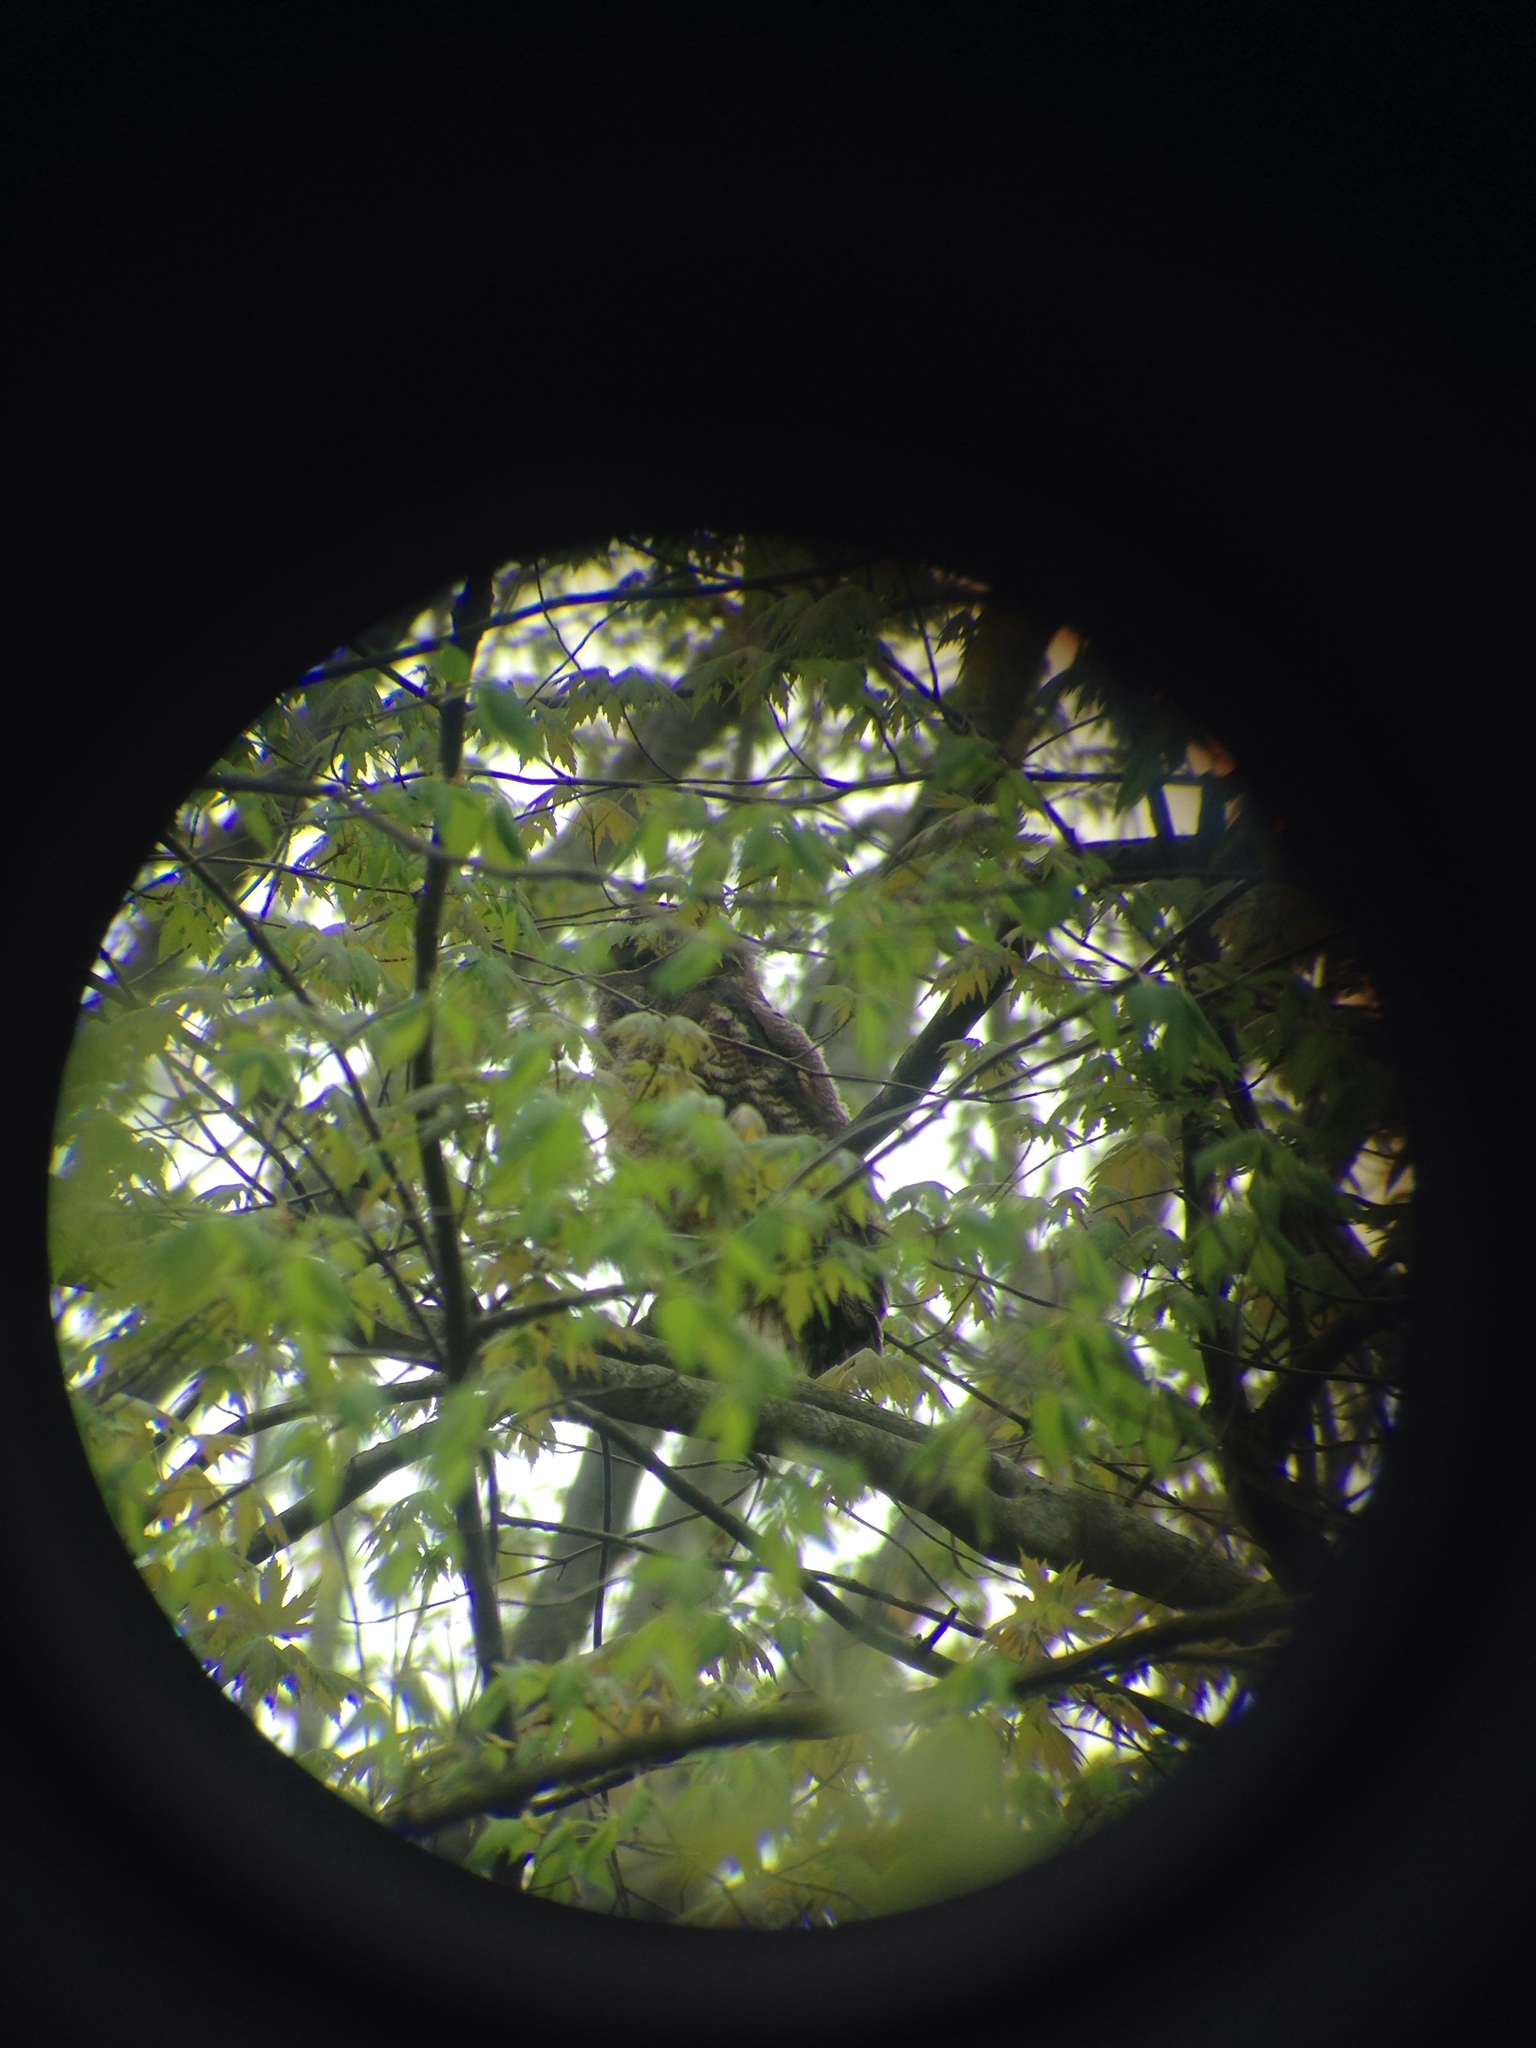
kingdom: Animalia
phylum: Chordata
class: Aves
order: Strigiformes
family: Strigidae
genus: Bubo
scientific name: Bubo virginianus
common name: Great horned owl
